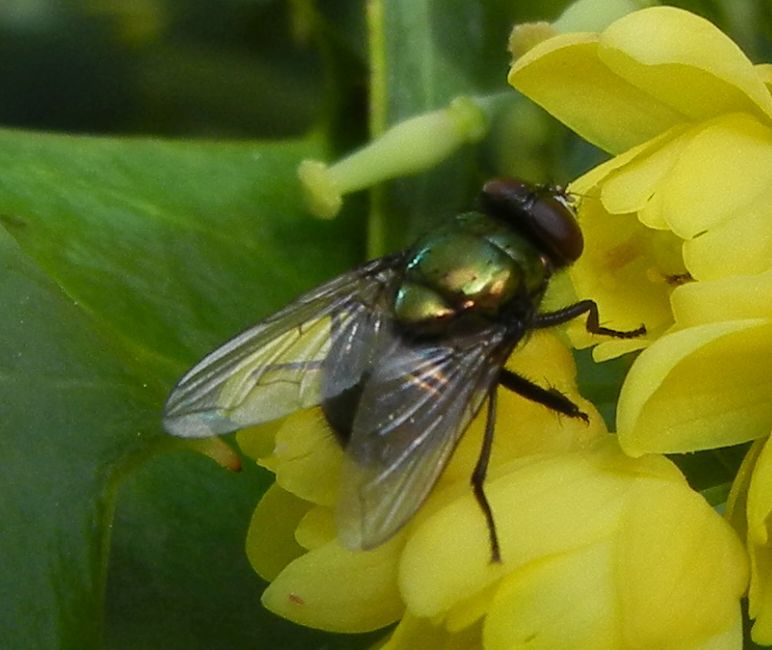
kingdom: Animalia
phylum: Arthropoda
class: Insecta
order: Diptera
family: Muscidae
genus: Neomyia
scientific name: Neomyia cornicina
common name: House fly
